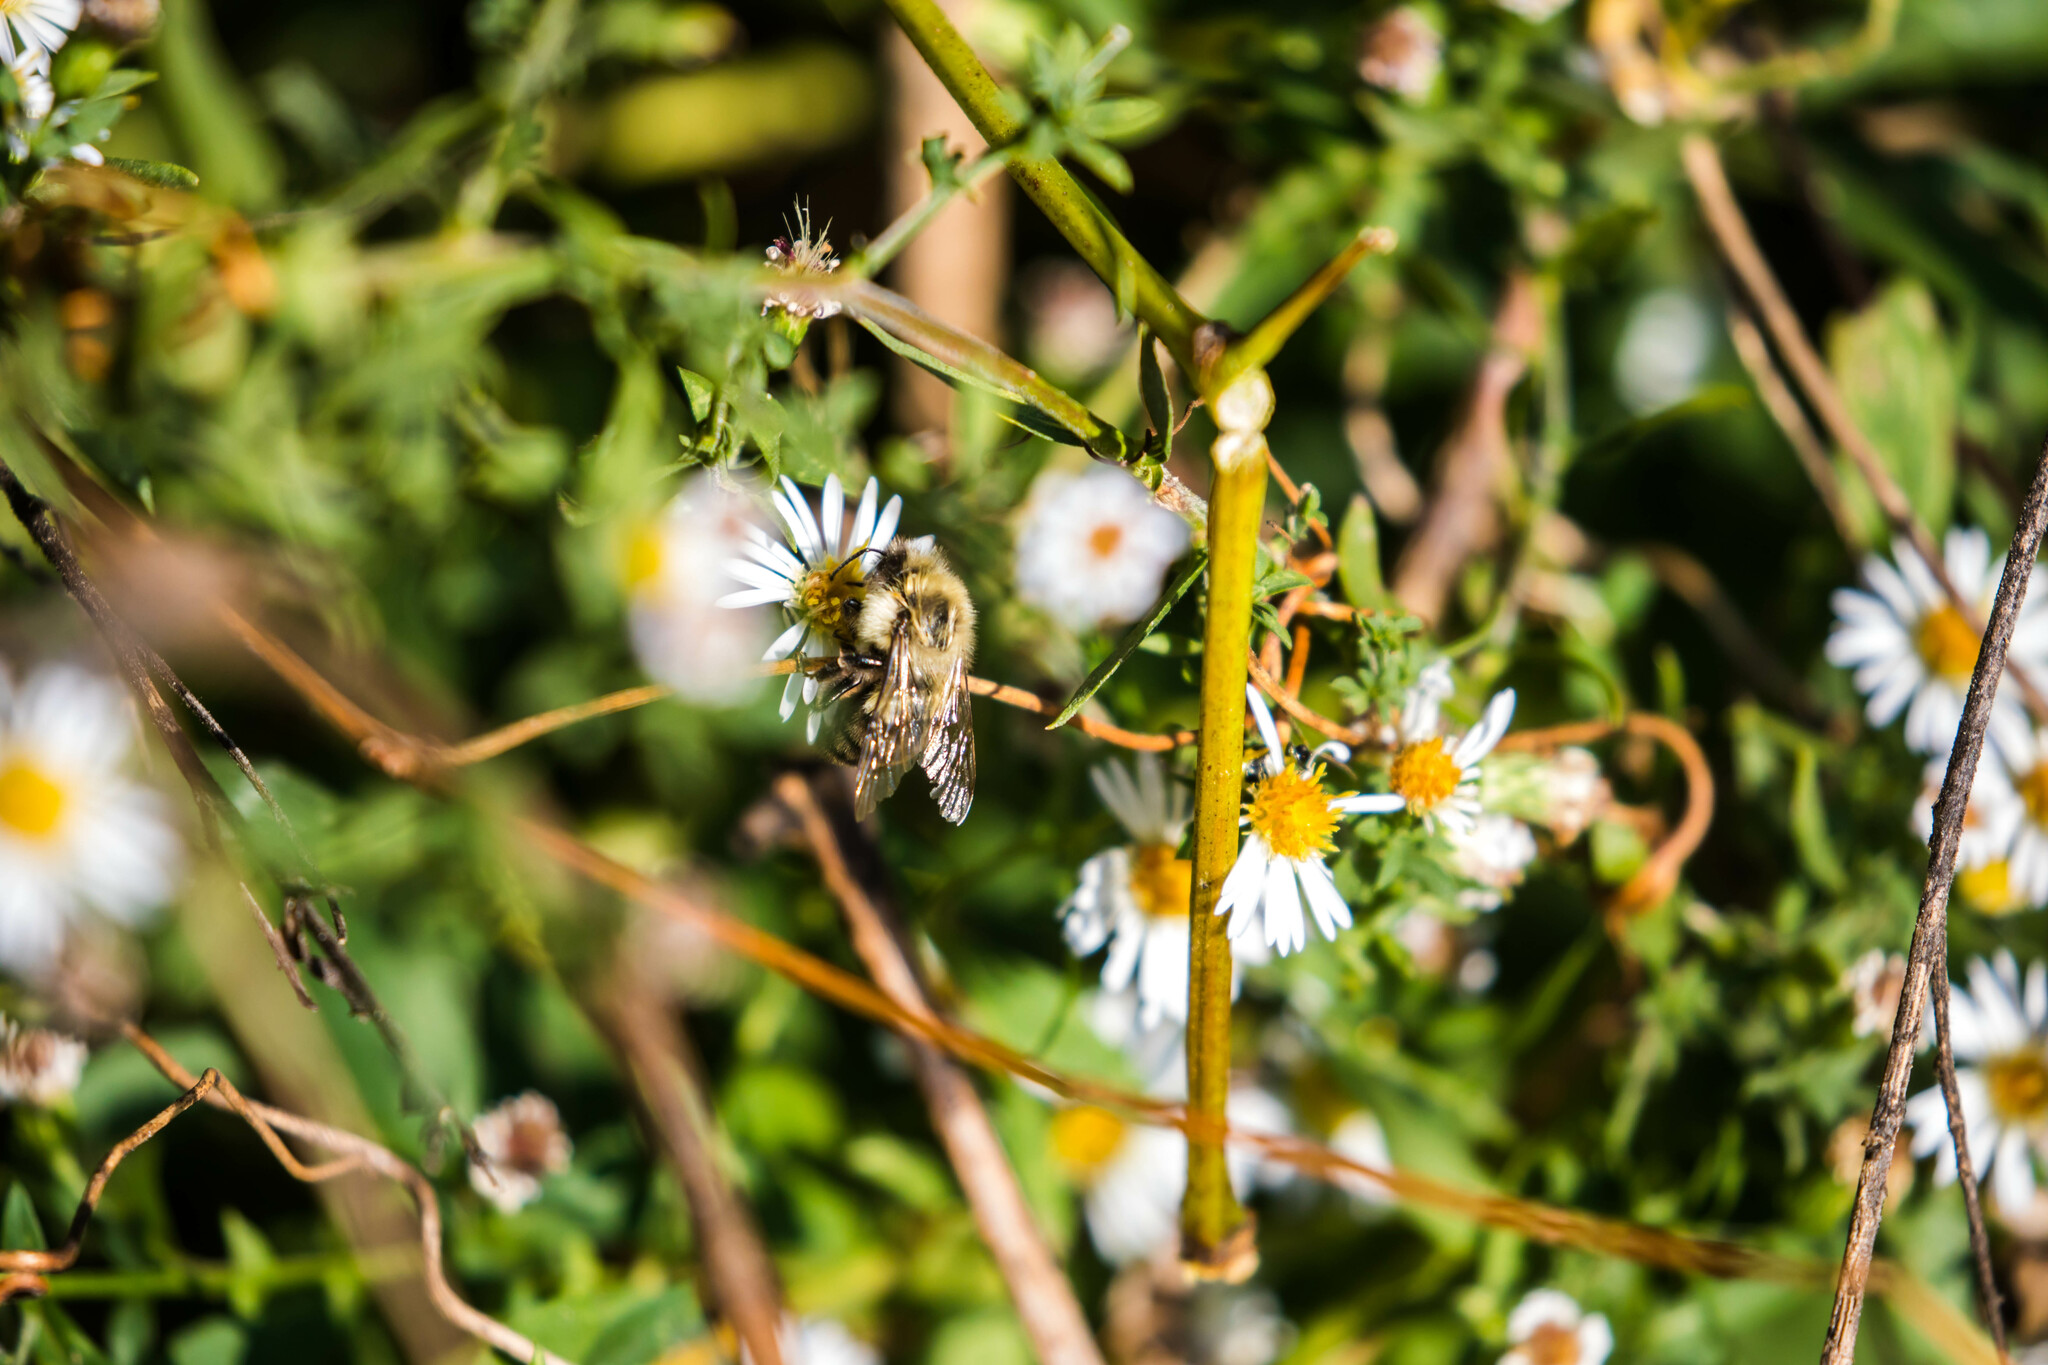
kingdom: Animalia
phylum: Arthropoda
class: Insecta
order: Hymenoptera
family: Apidae
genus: Bombus
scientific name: Bombus impatiens
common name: Common eastern bumble bee
